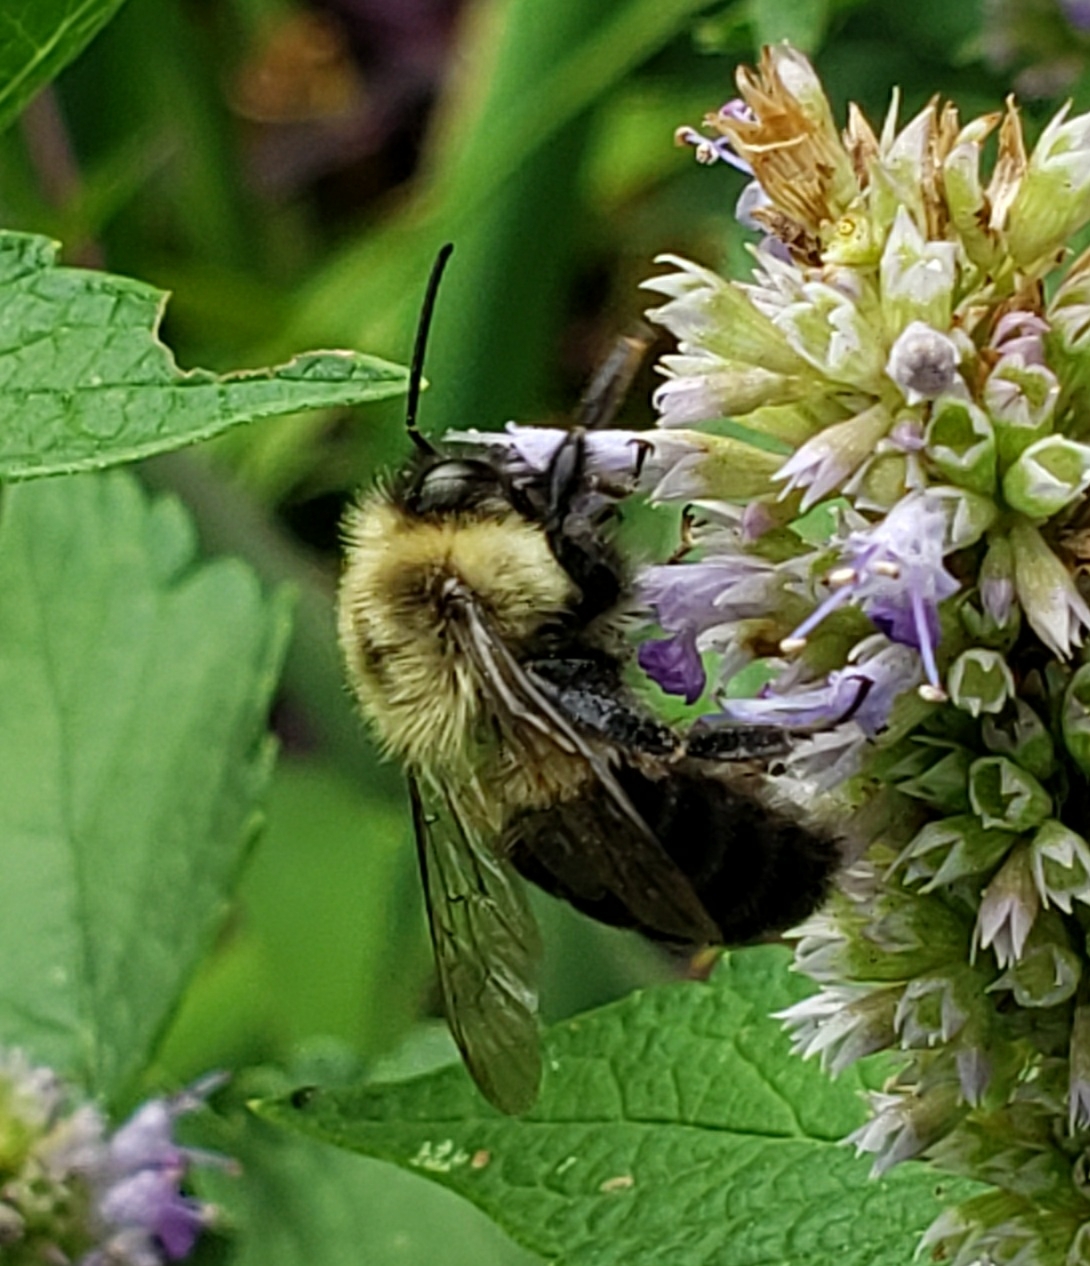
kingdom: Animalia
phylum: Arthropoda
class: Insecta
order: Hymenoptera
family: Apidae
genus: Bombus
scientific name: Bombus impatiens
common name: Common eastern bumble bee
